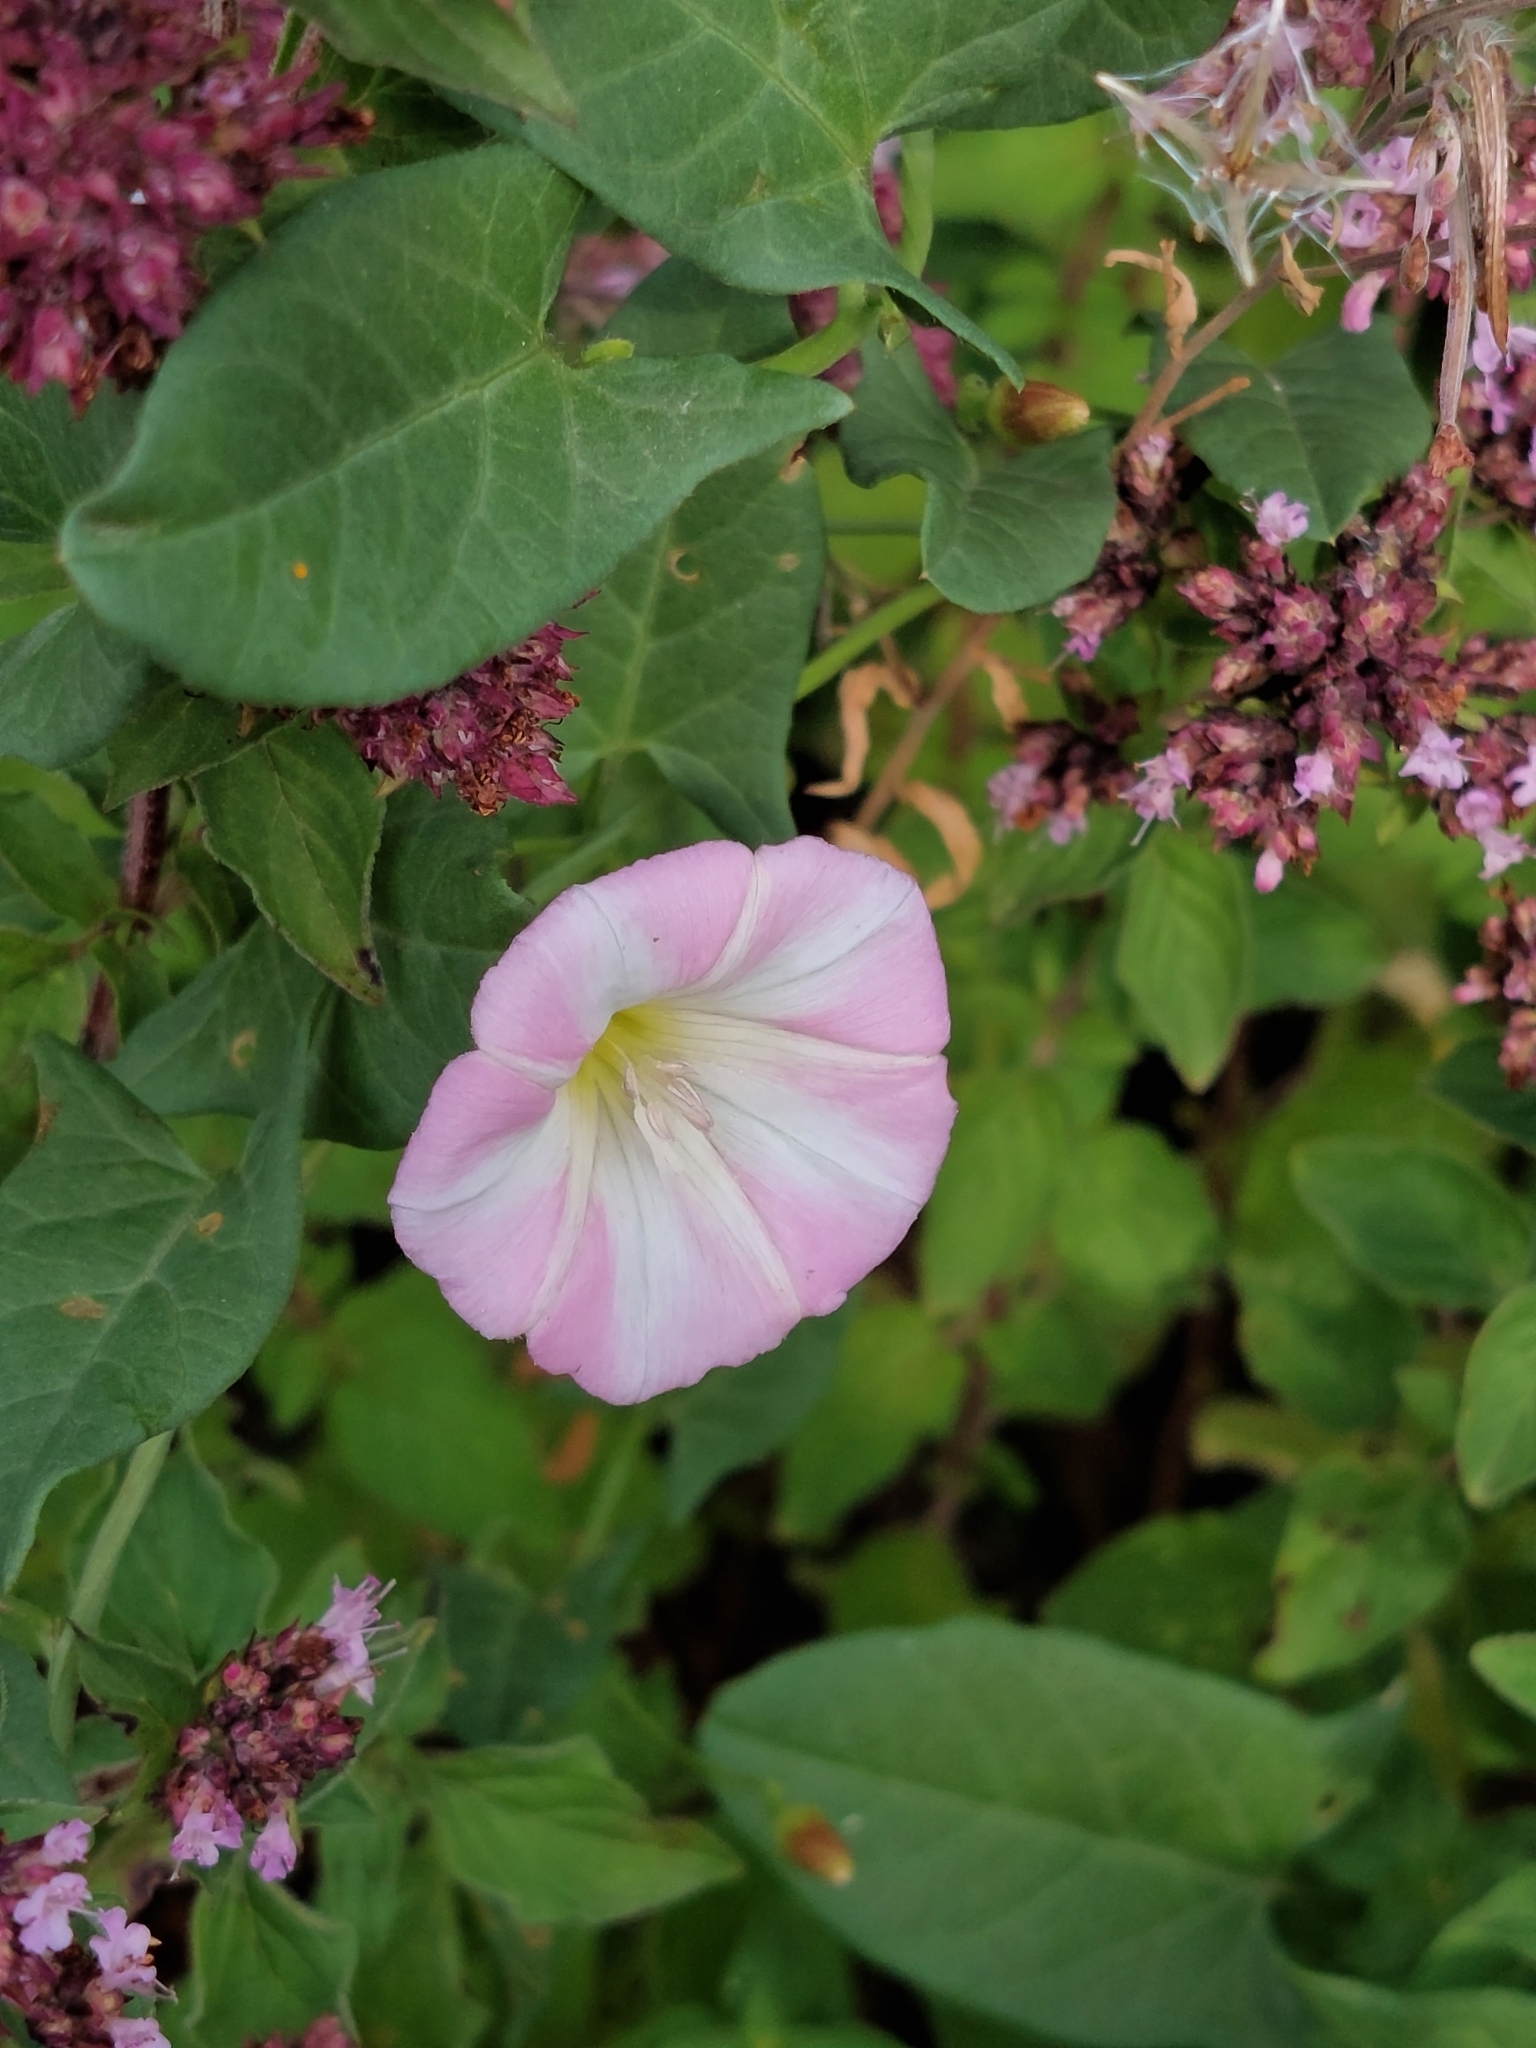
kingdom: Plantae
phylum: Tracheophyta
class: Magnoliopsida
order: Solanales
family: Convolvulaceae
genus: Convolvulus
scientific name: Convolvulus arvensis
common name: Field bindweed
